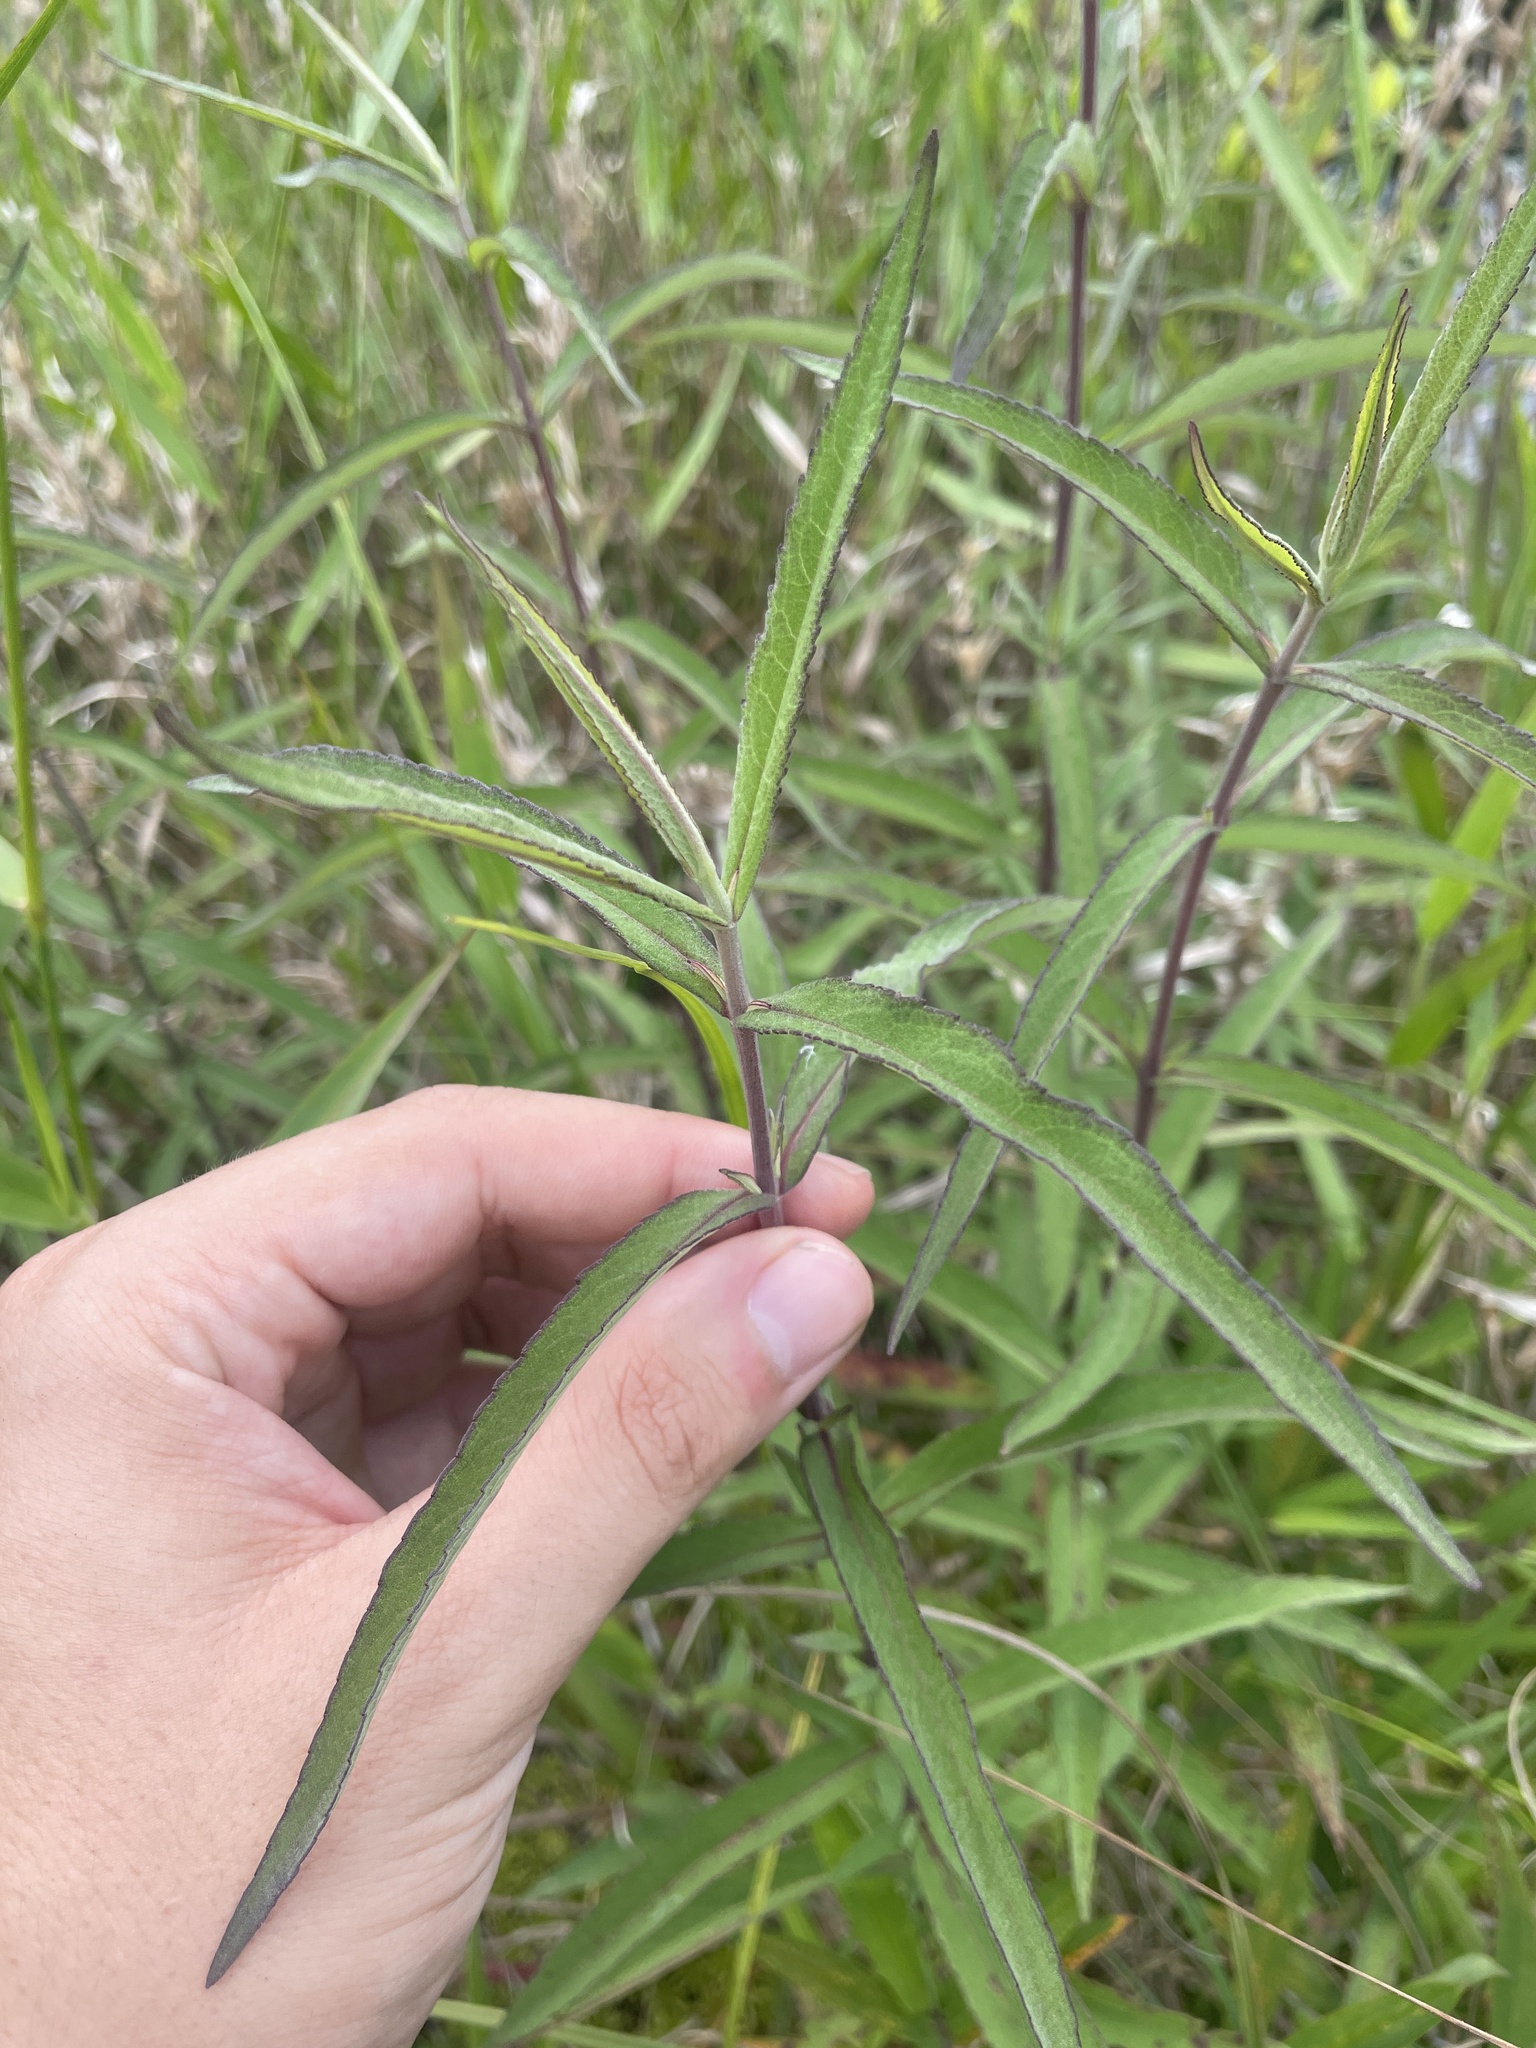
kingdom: Plantae
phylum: Tracheophyta
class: Magnoliopsida
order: Asterales
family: Asteraceae
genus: Eupatorium
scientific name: Eupatorium resinosum
